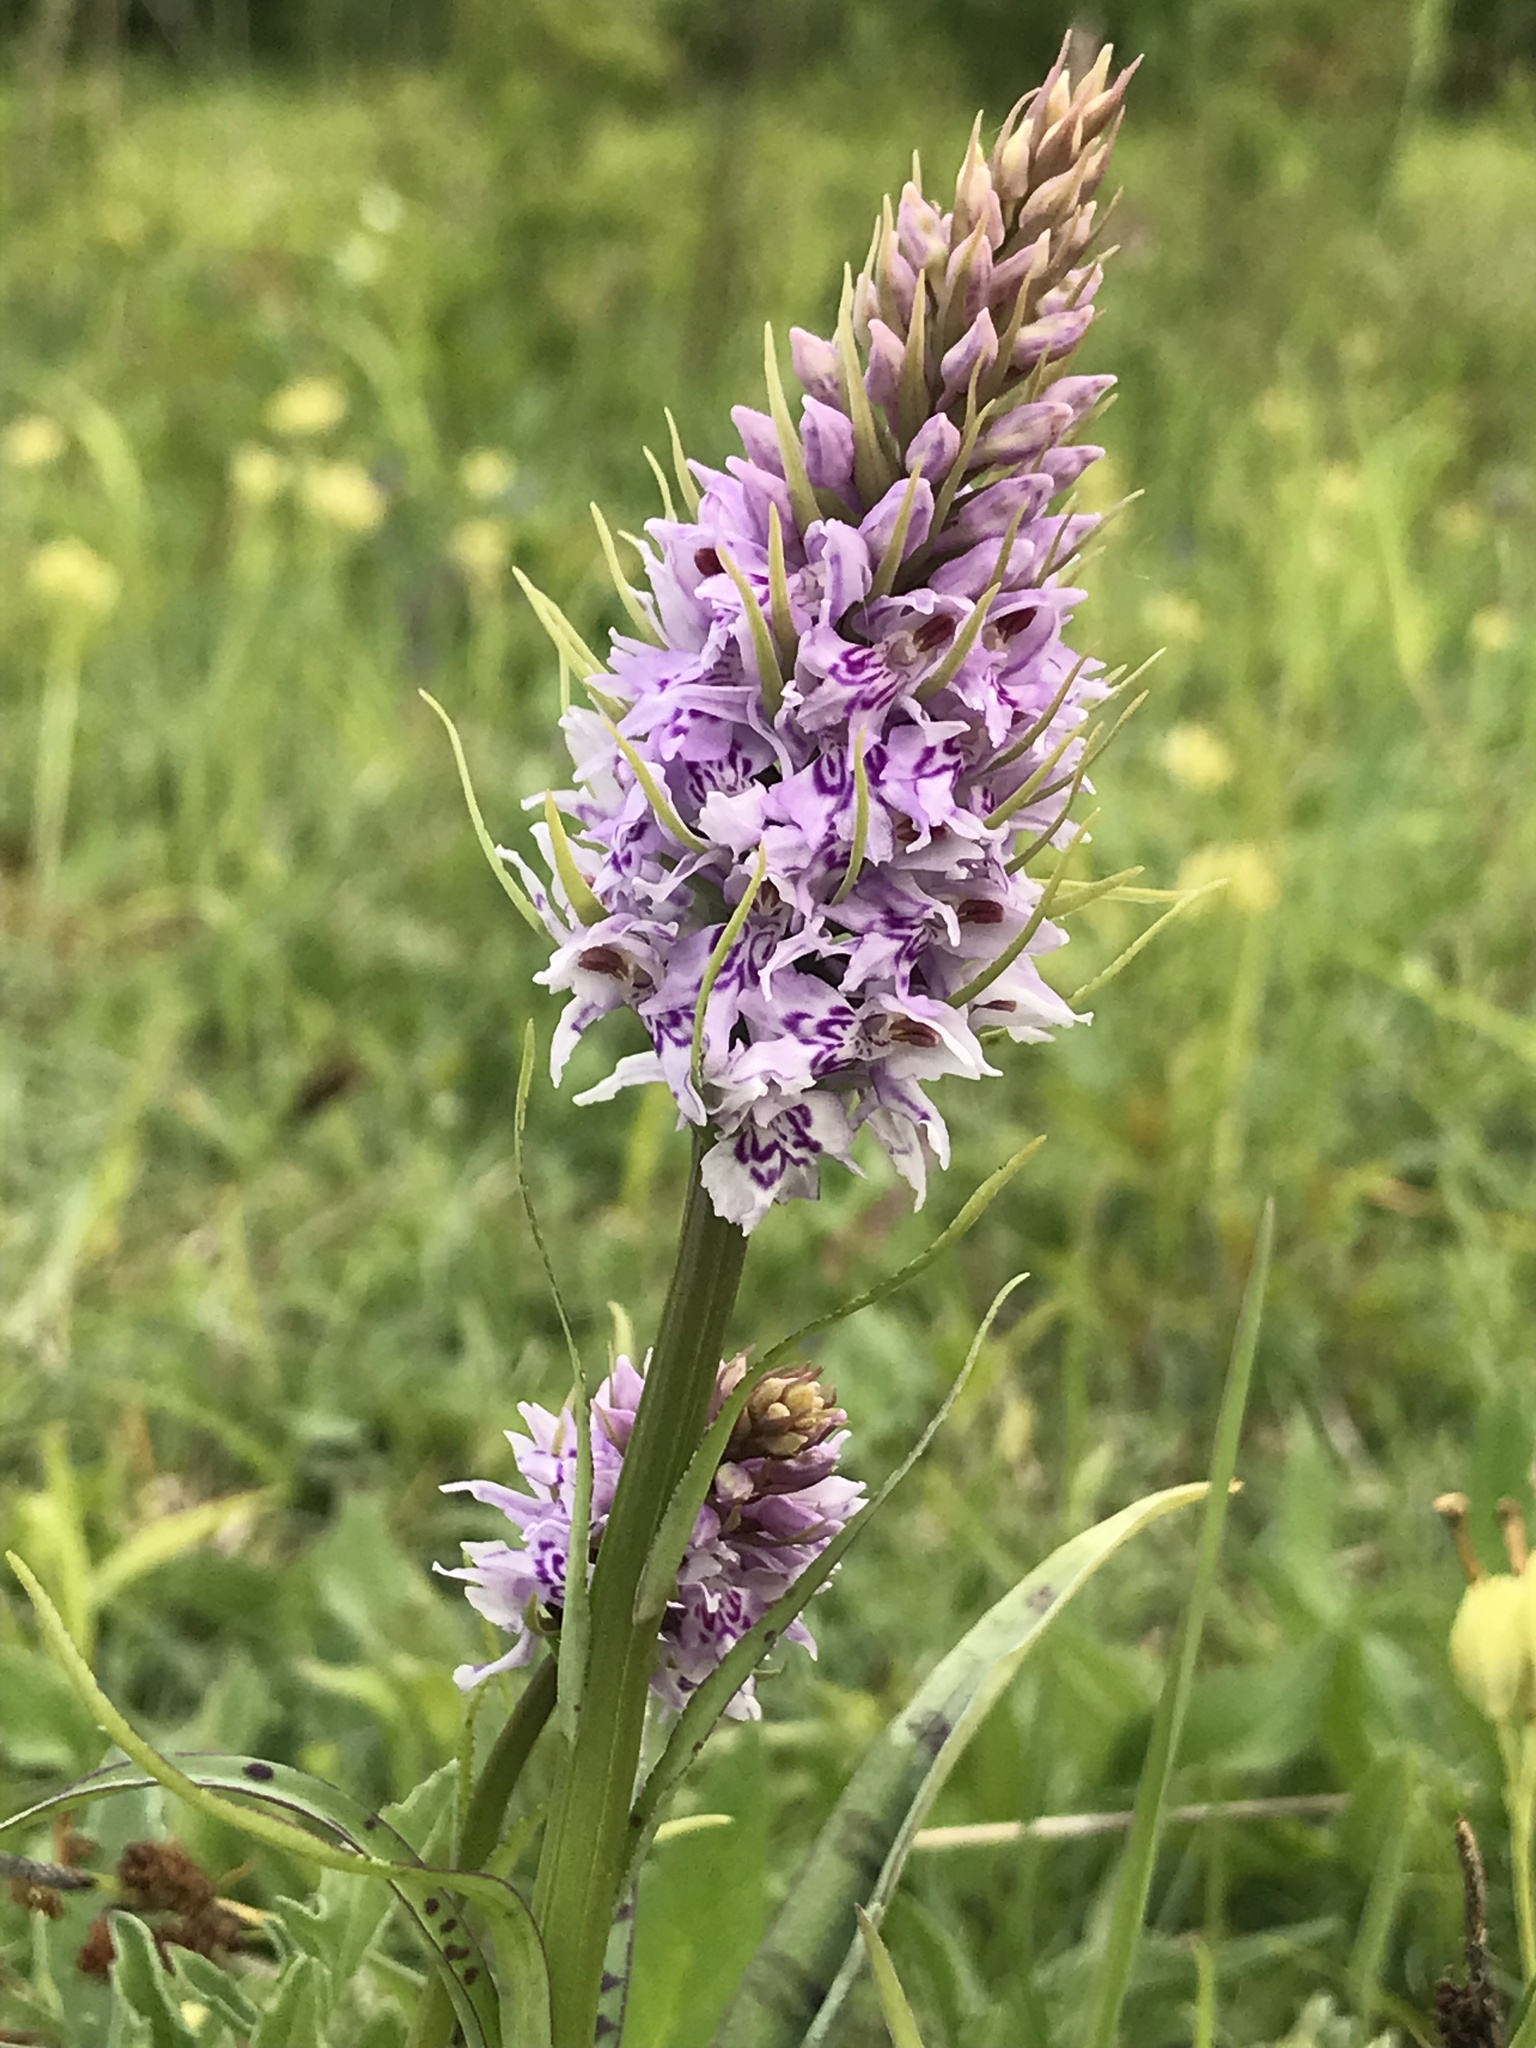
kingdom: Plantae
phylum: Tracheophyta
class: Liliopsida
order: Asparagales
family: Orchidaceae
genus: Dactylorhiza
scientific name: Dactylorhiza maculata
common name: Heath spotted-orchid
